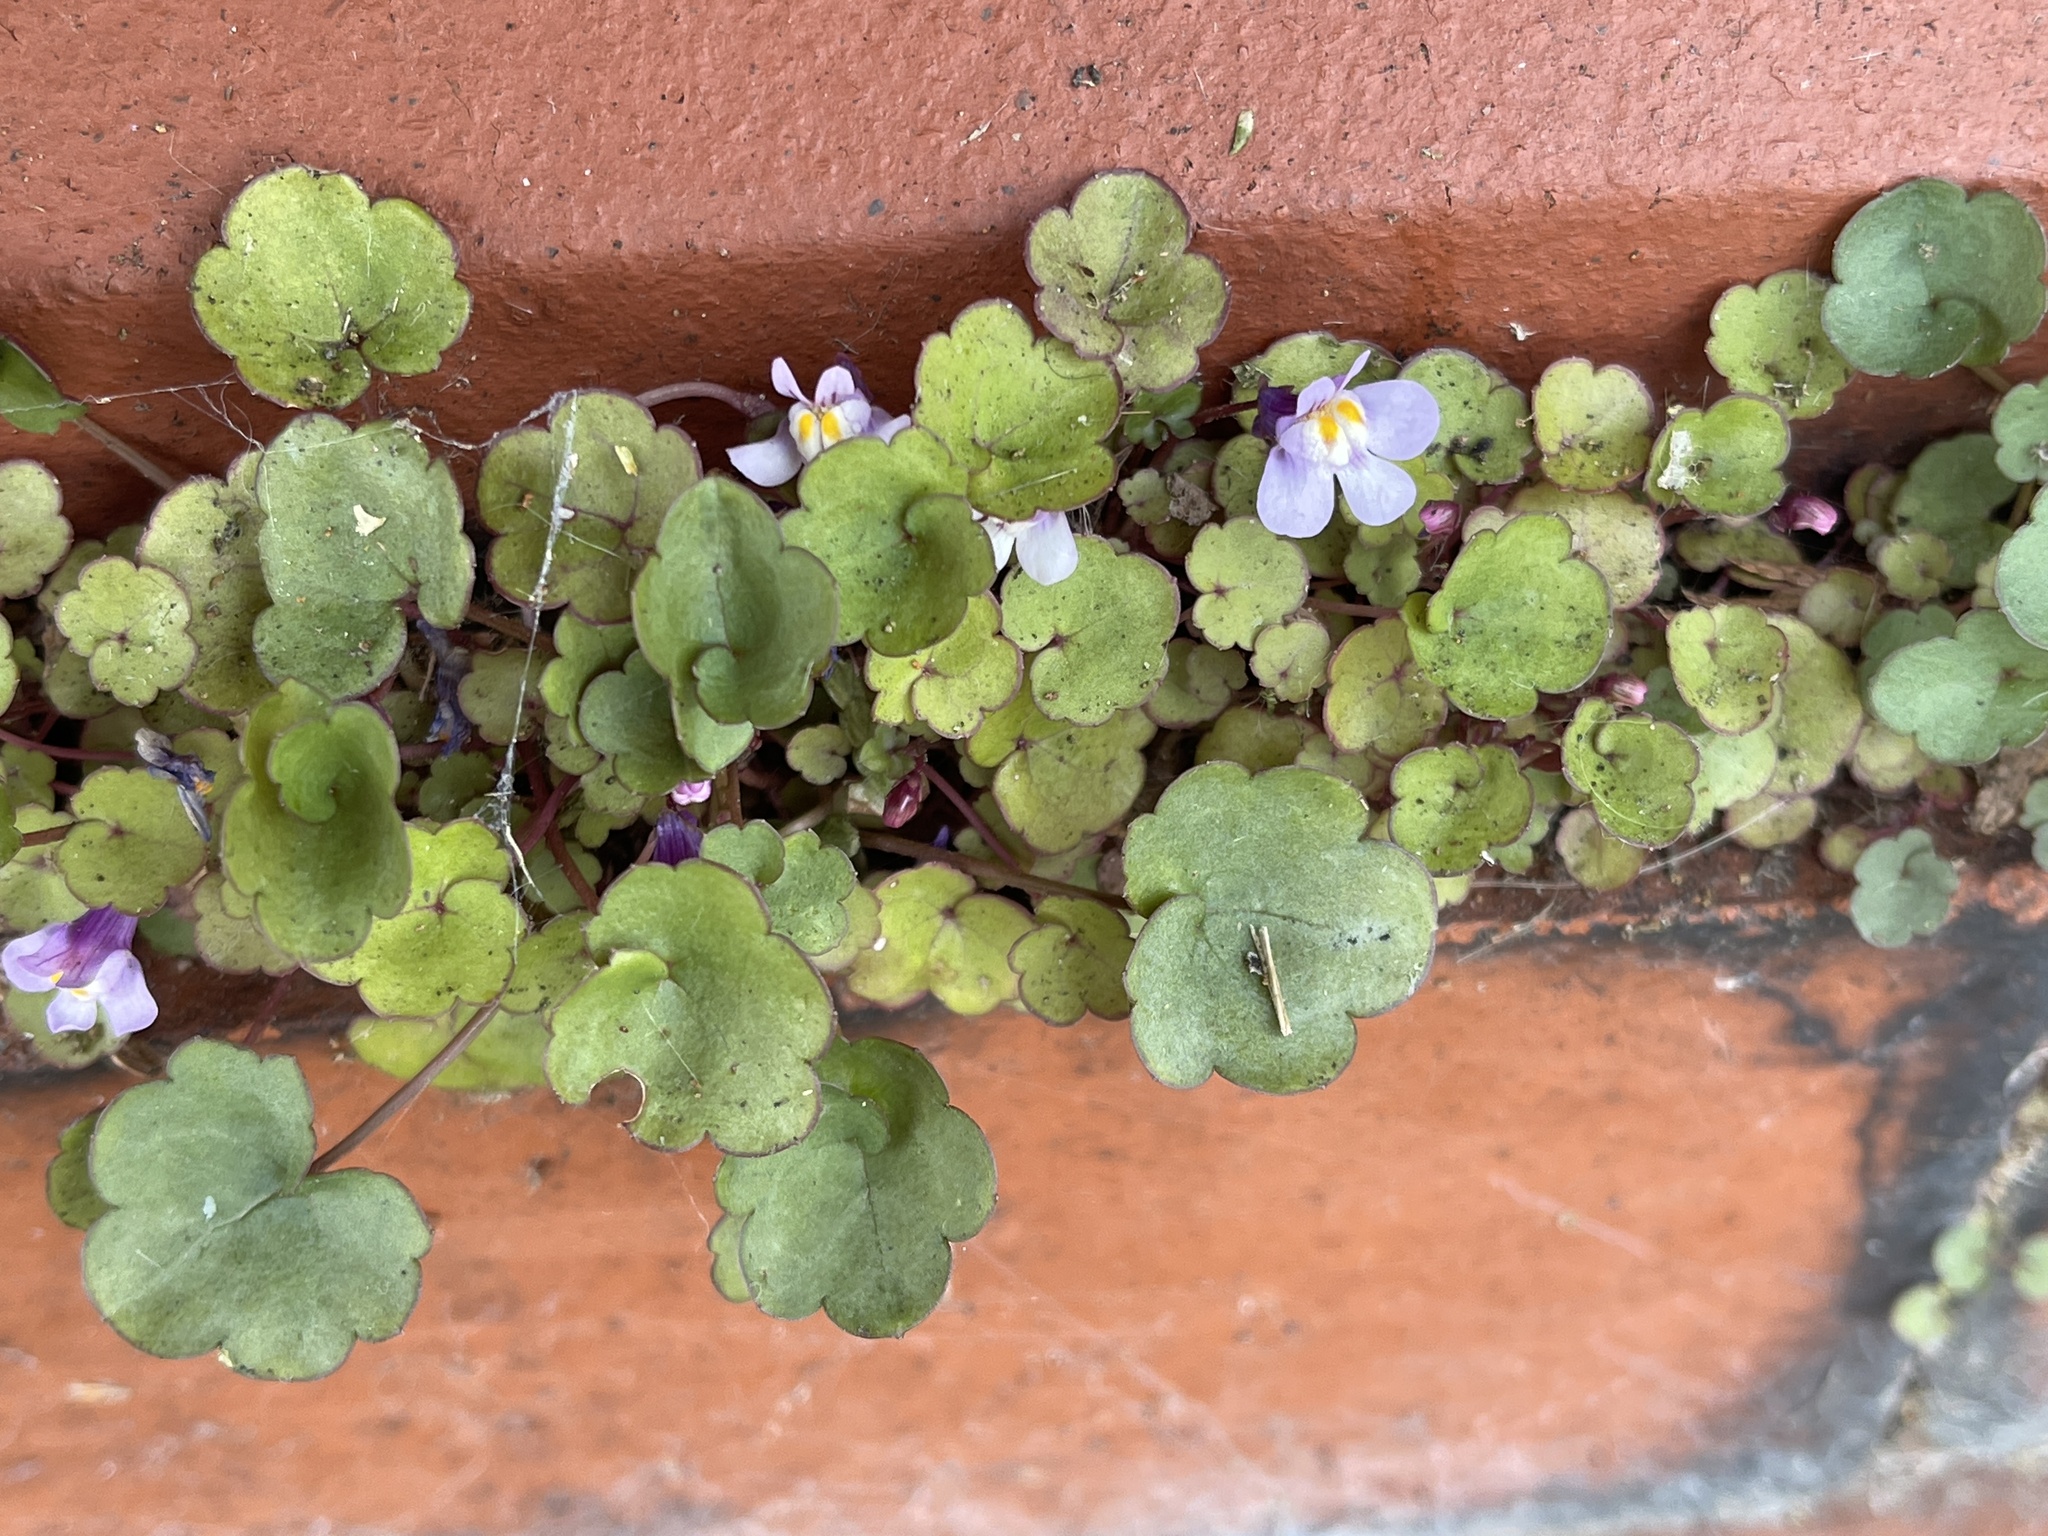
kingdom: Plantae
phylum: Tracheophyta
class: Magnoliopsida
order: Lamiales
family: Plantaginaceae
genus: Cymbalaria
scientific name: Cymbalaria muralis
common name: Ivy-leaved toadflax
